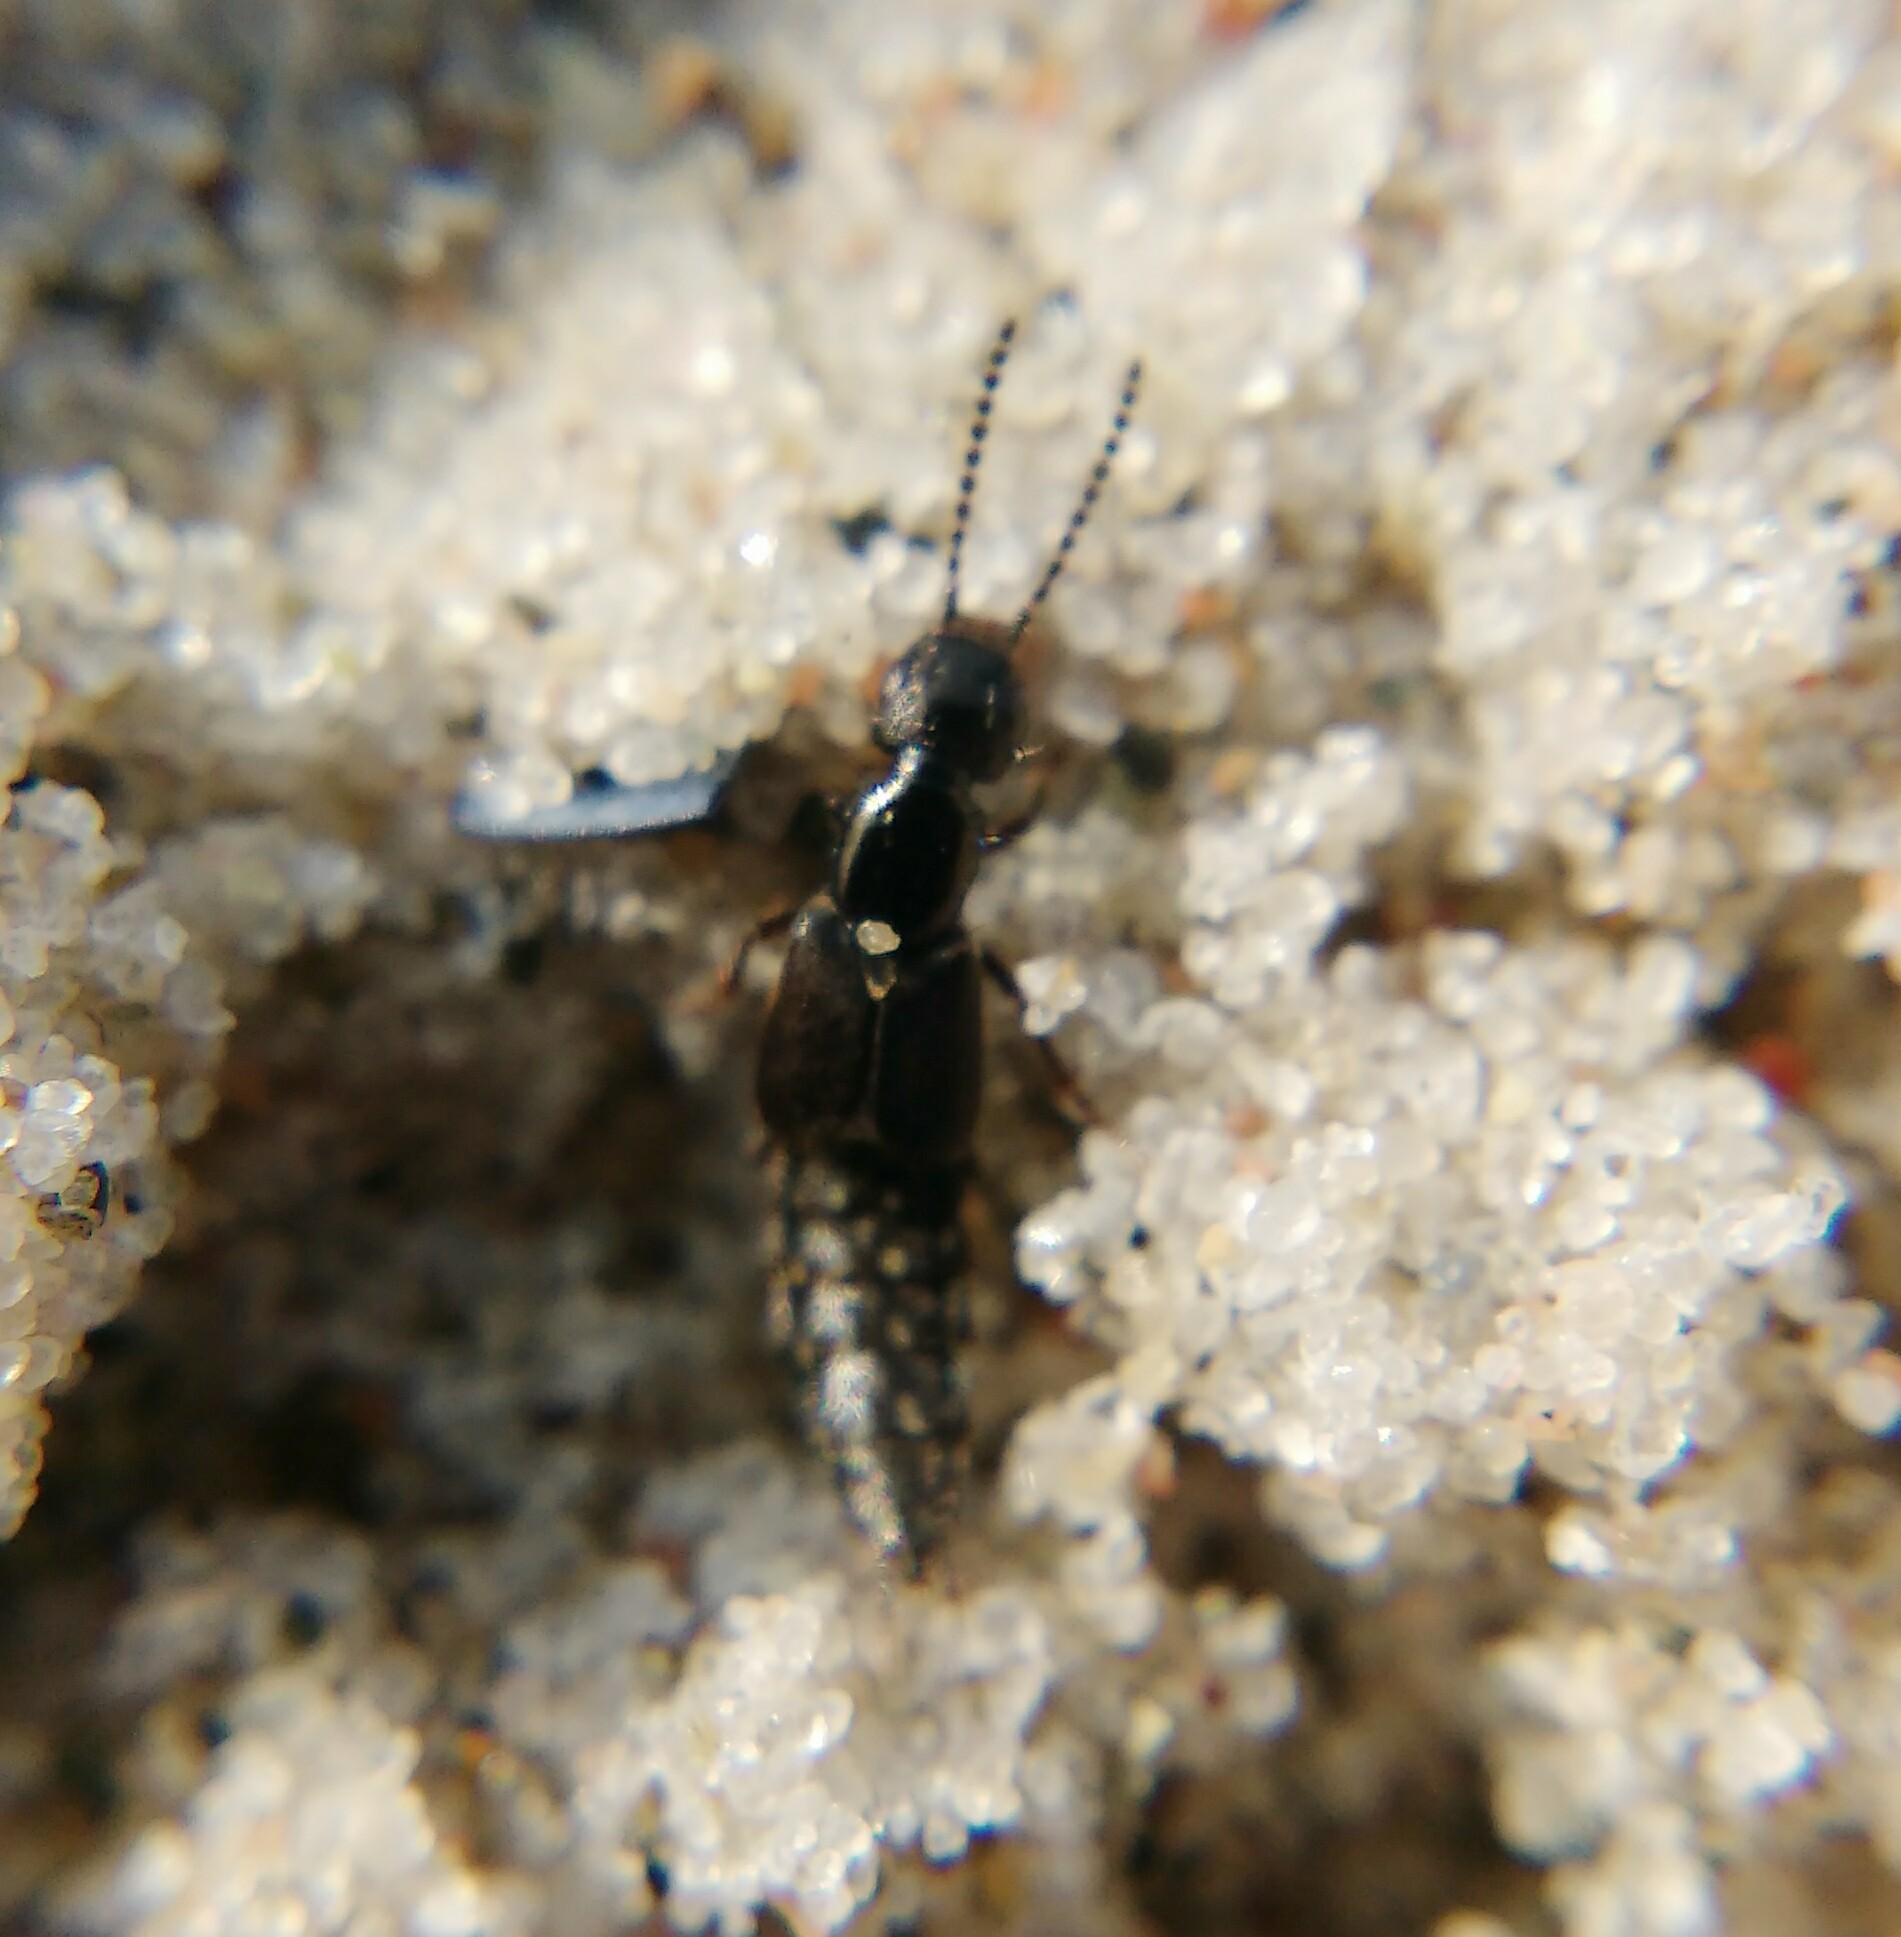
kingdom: Animalia
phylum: Arthropoda
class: Insecta
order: Coleoptera
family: Staphylinidae
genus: Cafius
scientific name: Cafius xantholoma
